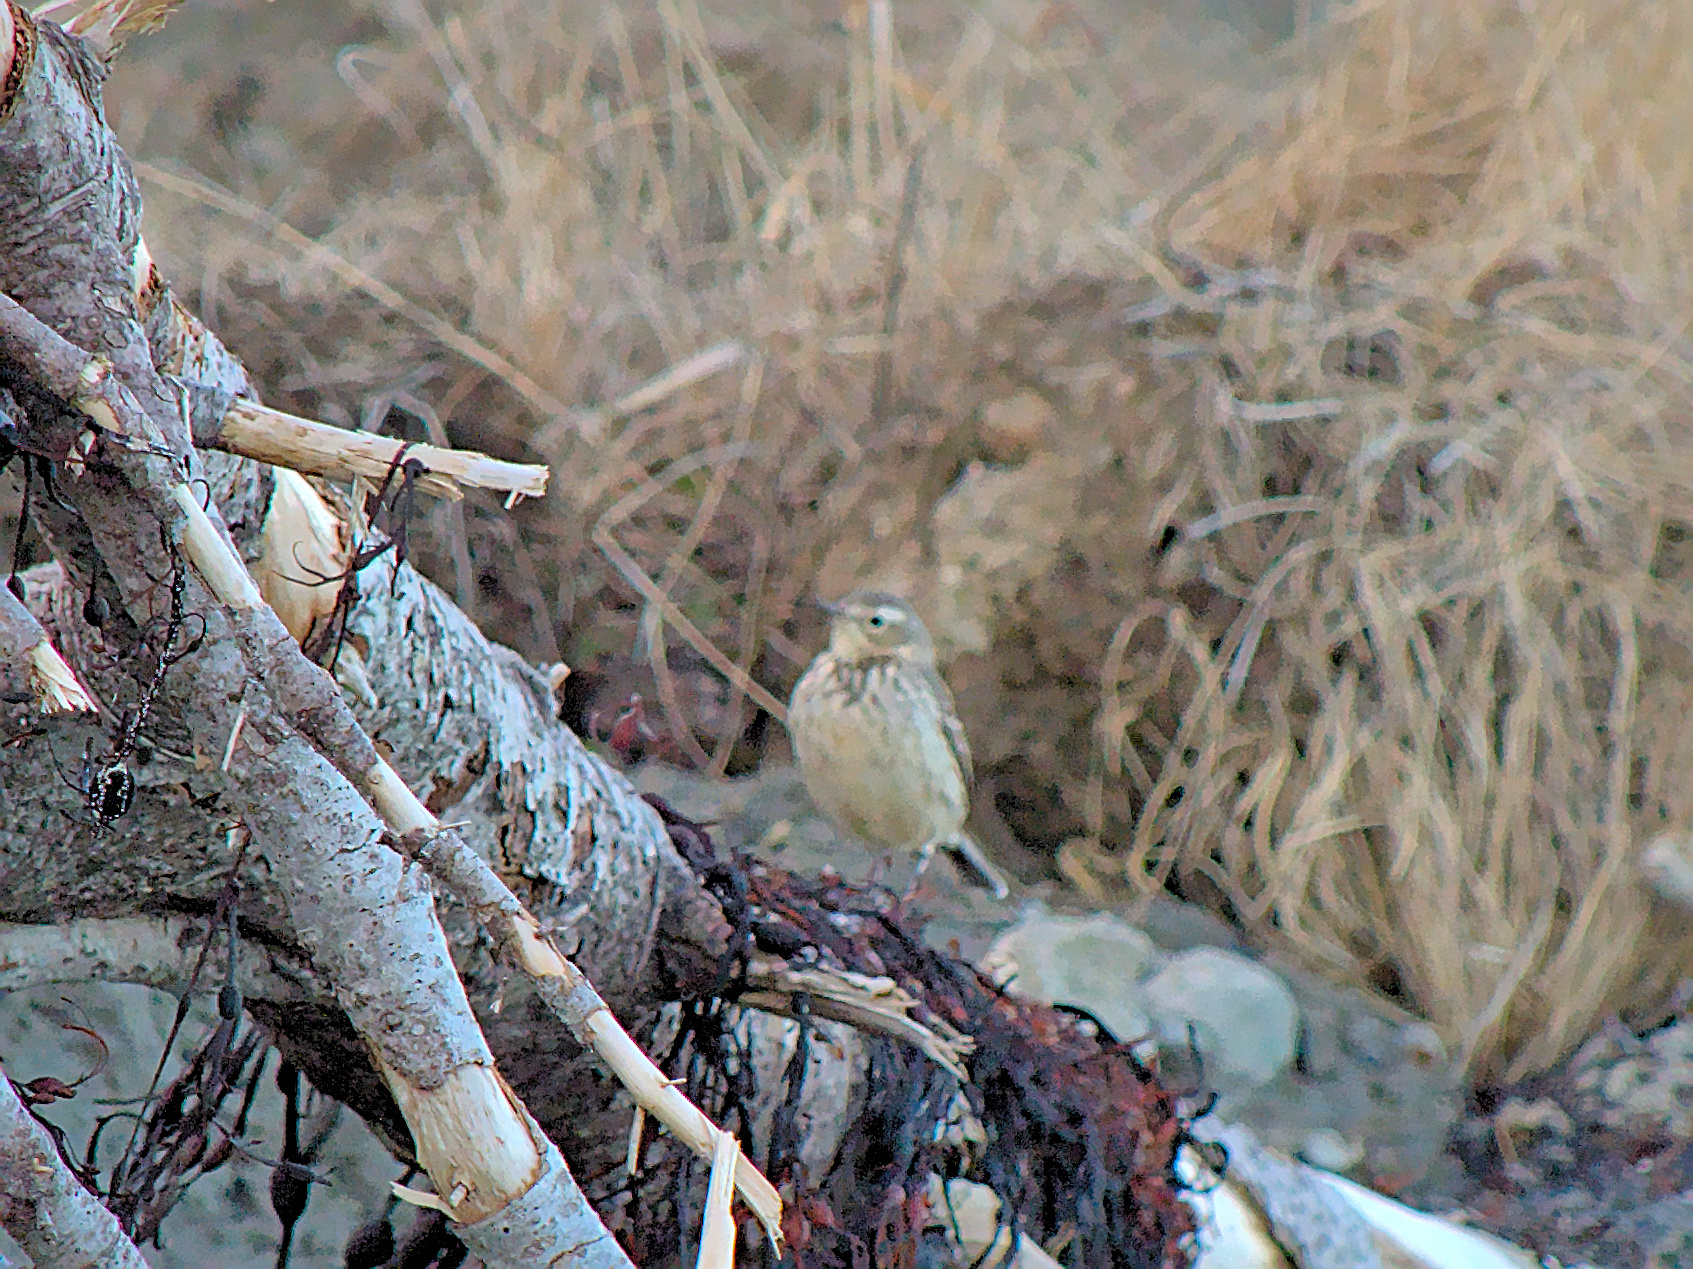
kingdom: Animalia
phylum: Chordata
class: Aves
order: Passeriformes
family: Motacillidae
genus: Anthus
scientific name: Anthus rubescens
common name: Buff-bellied pipit
